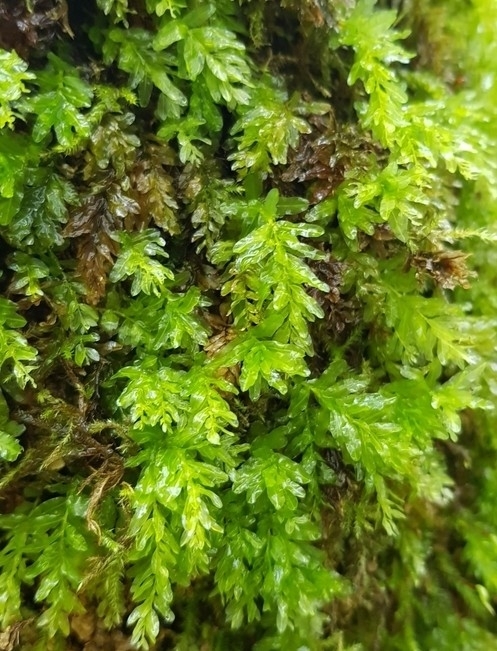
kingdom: Plantae
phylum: Bryophyta
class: Bryopsida
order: Bryales
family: Mniaceae
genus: Plagiomnium
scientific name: Plagiomnium undulatum
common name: Hart's-tongue thyme-moss
